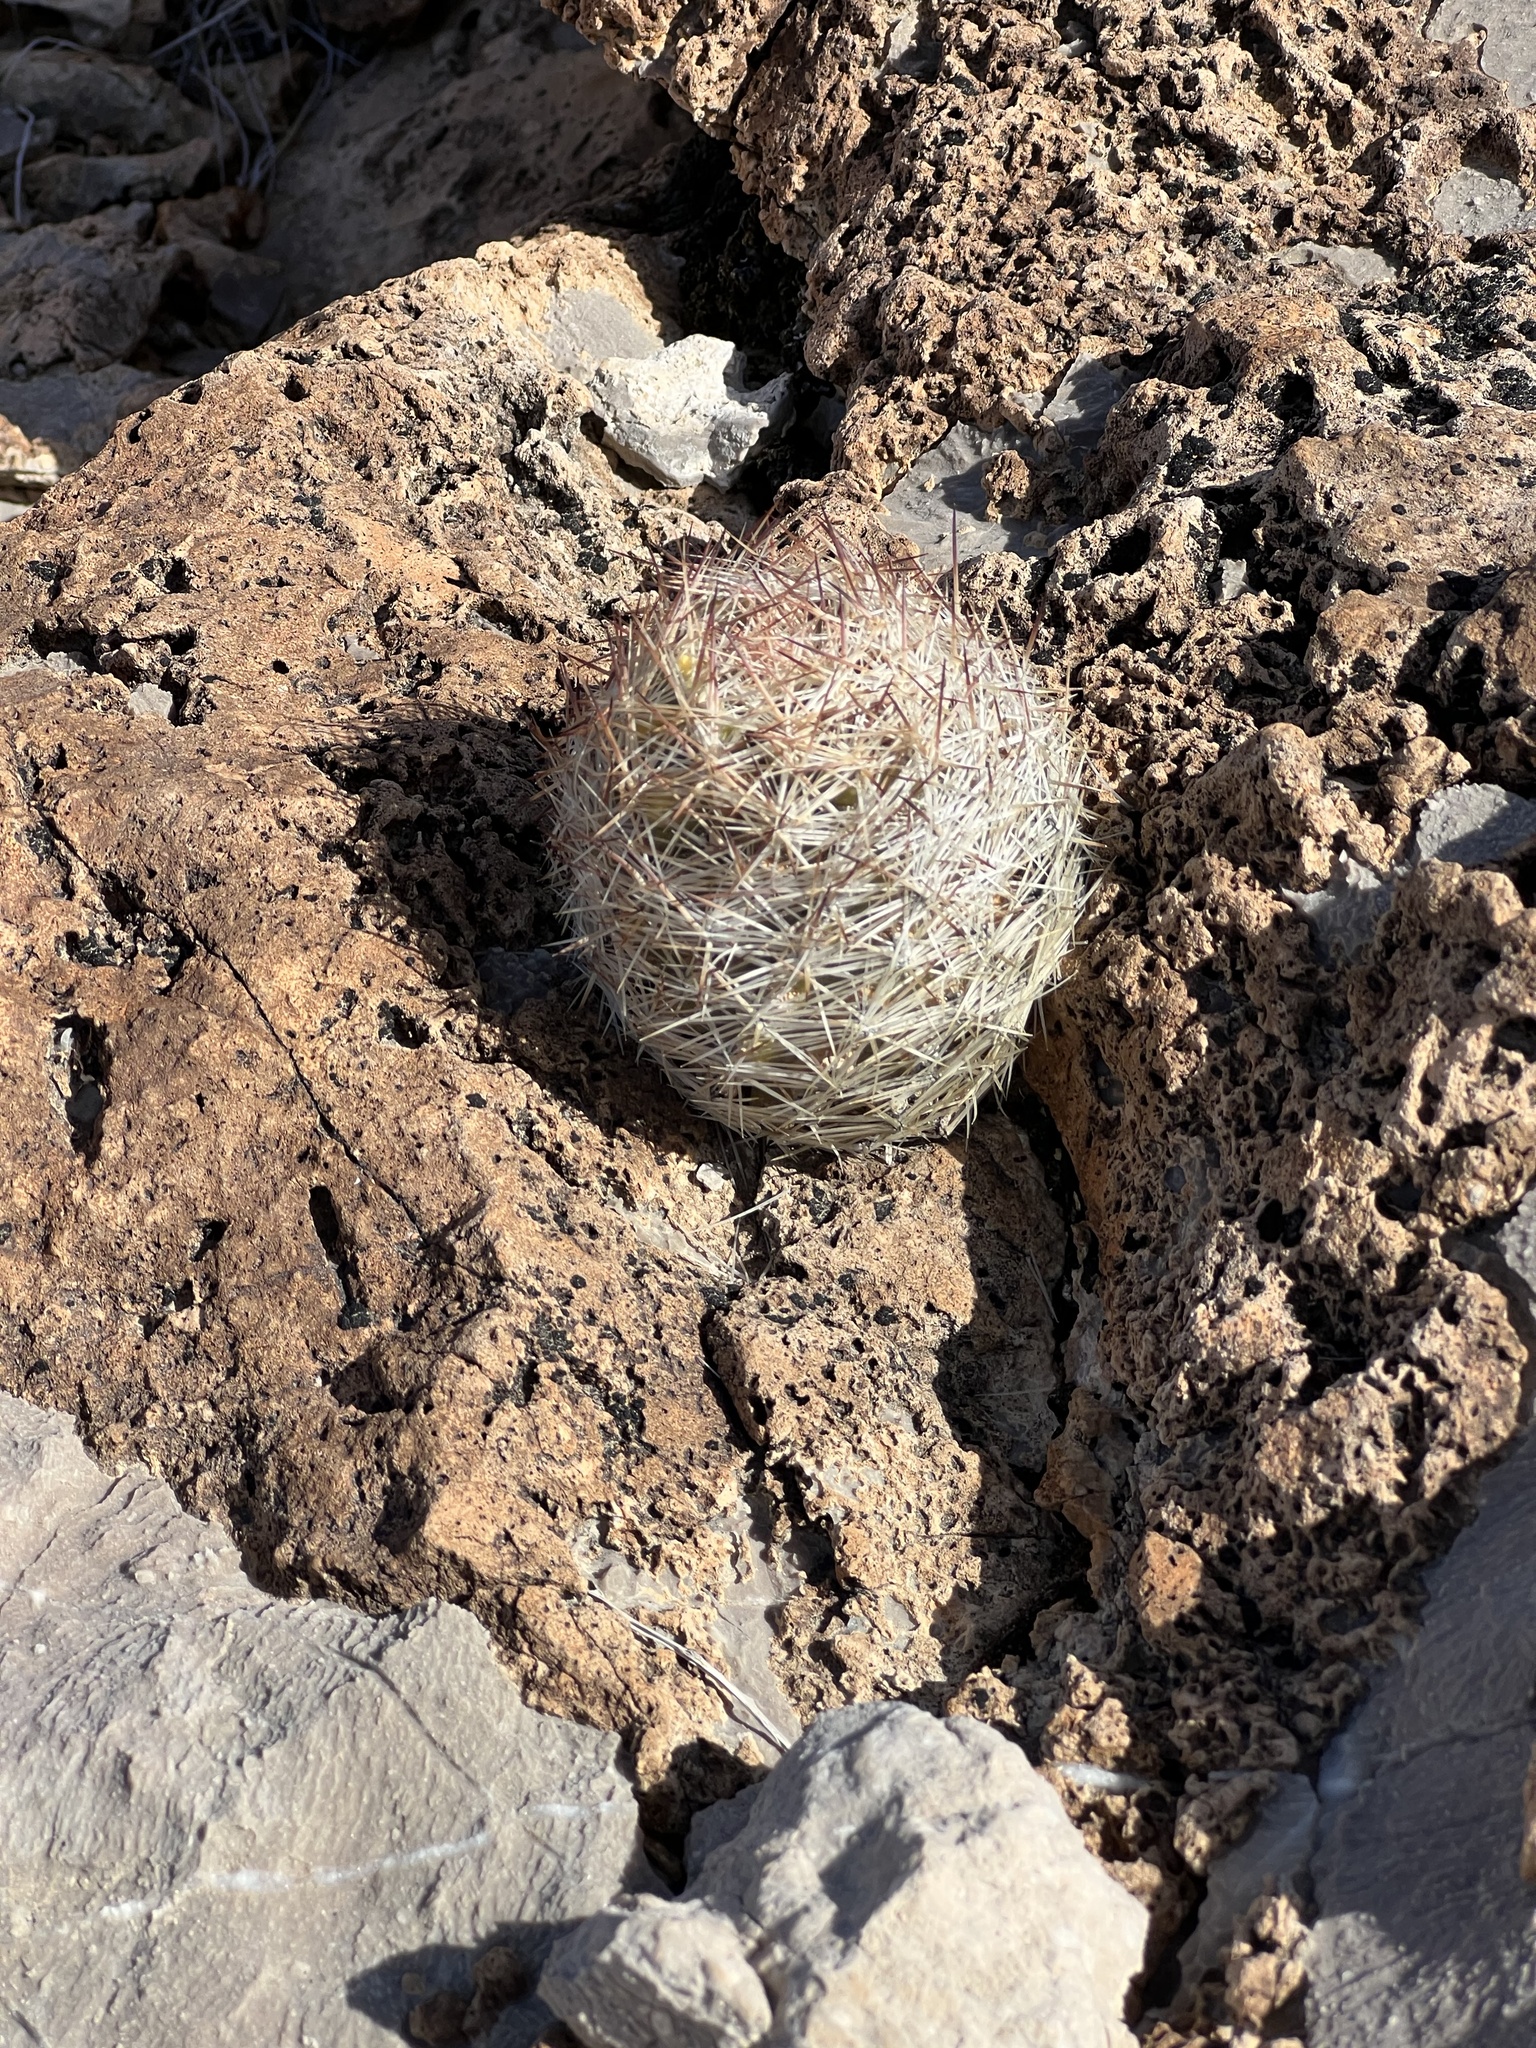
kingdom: Plantae
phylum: Tracheophyta
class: Magnoliopsida
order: Caryophyllales
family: Cactaceae
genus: Pelecyphora
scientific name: Pelecyphora dasyacantha
